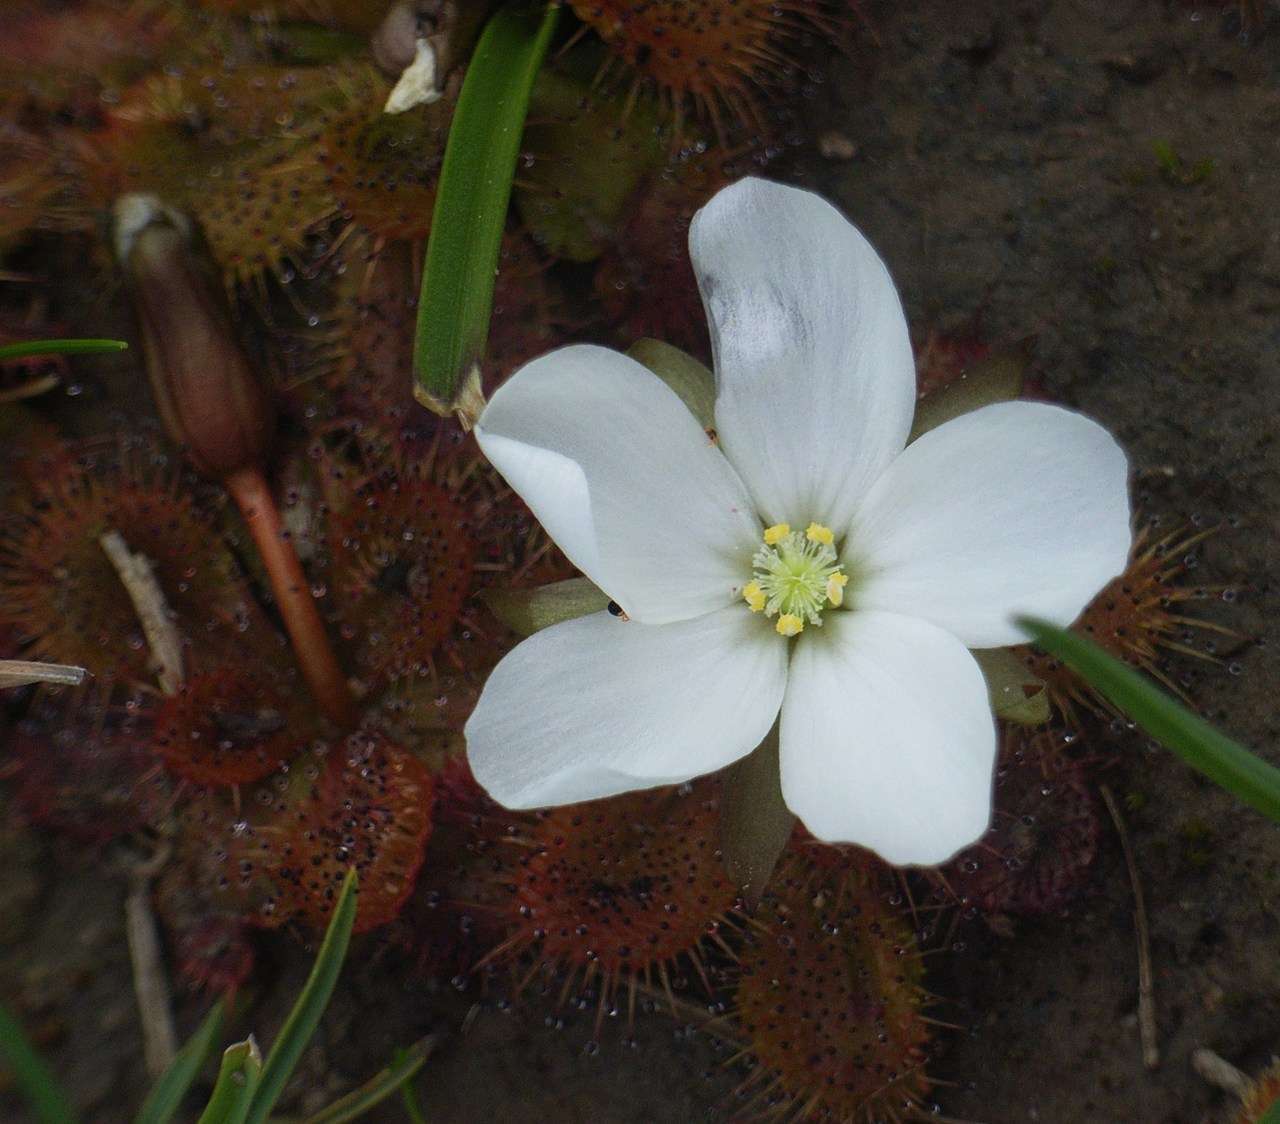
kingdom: Plantae
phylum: Tracheophyta
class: Magnoliopsida
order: Caryophyllales
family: Droseraceae
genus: Drosera
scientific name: Drosera aberrans
